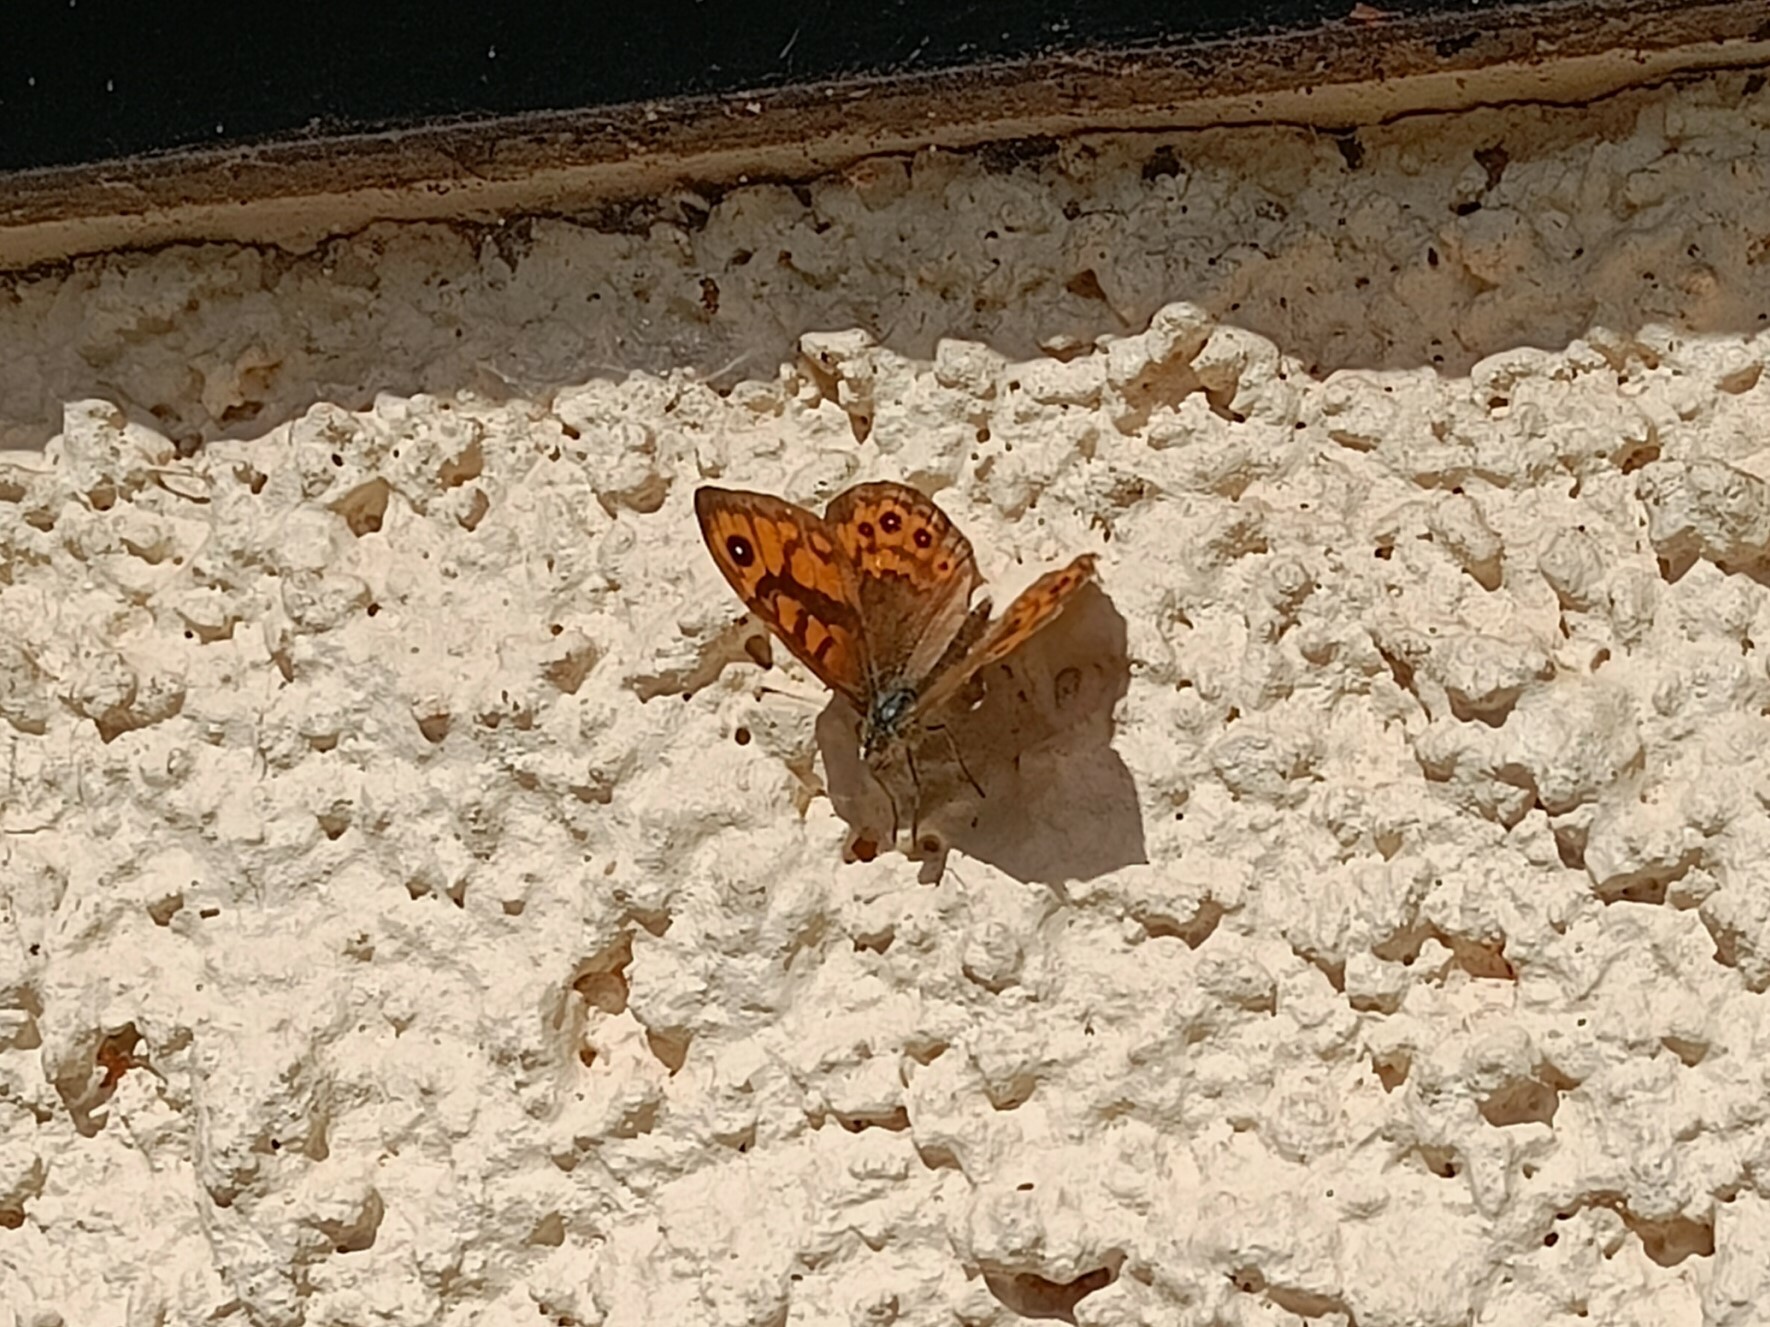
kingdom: Animalia
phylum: Arthropoda
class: Insecta
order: Lepidoptera
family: Nymphalidae
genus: Pararge
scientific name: Pararge Lasiommata megera
